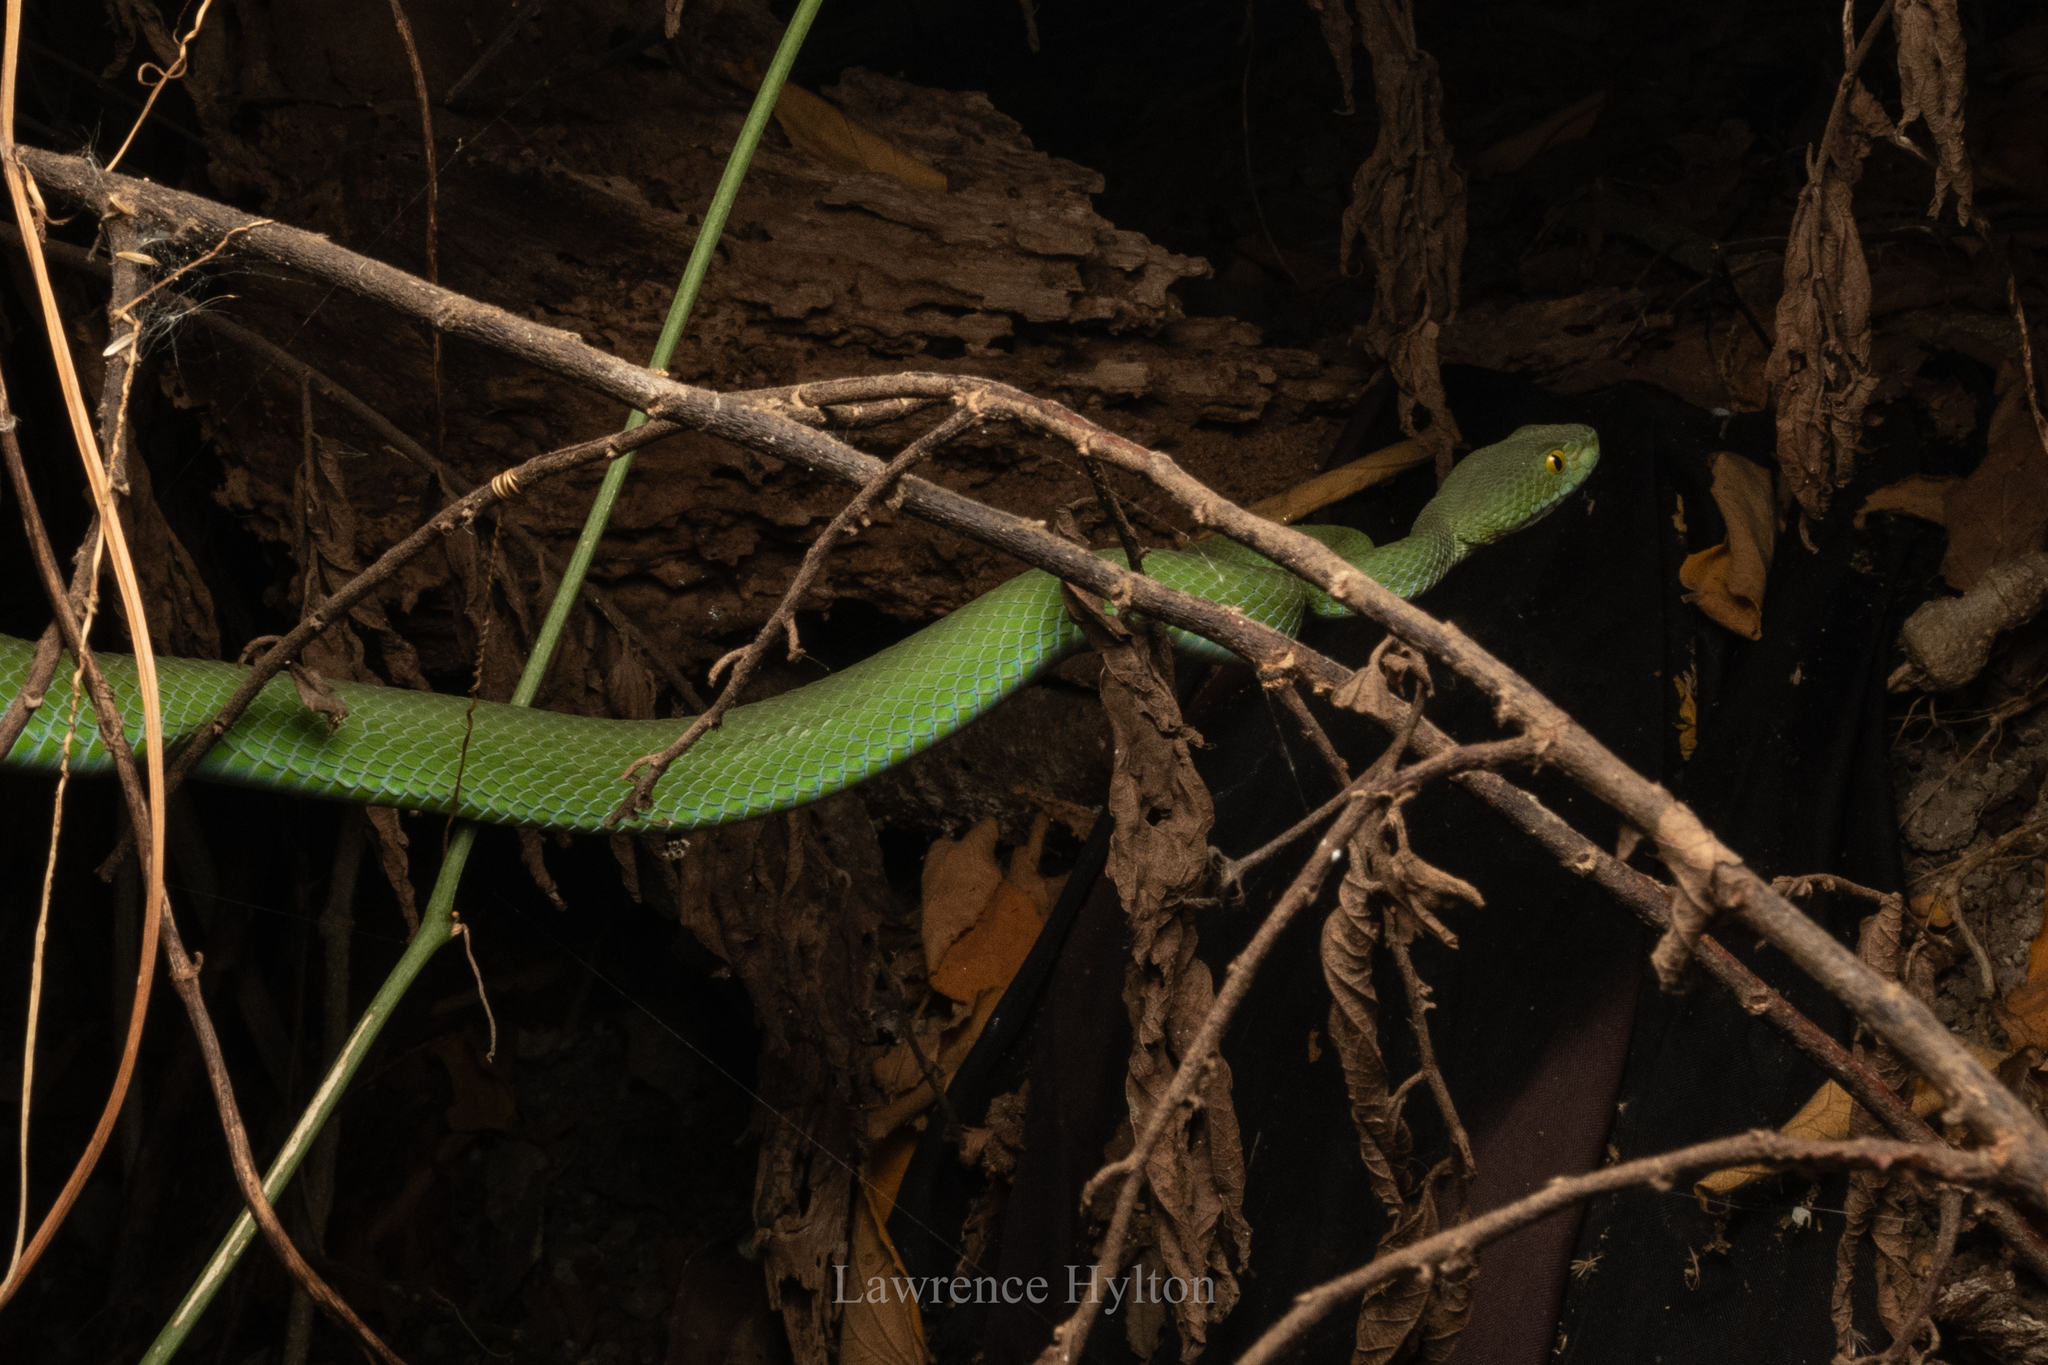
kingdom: Animalia
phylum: Chordata
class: Squamata
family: Viperidae
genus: Trimeresurus
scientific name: Trimeresurus macrops
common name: Kramer's pit viper
